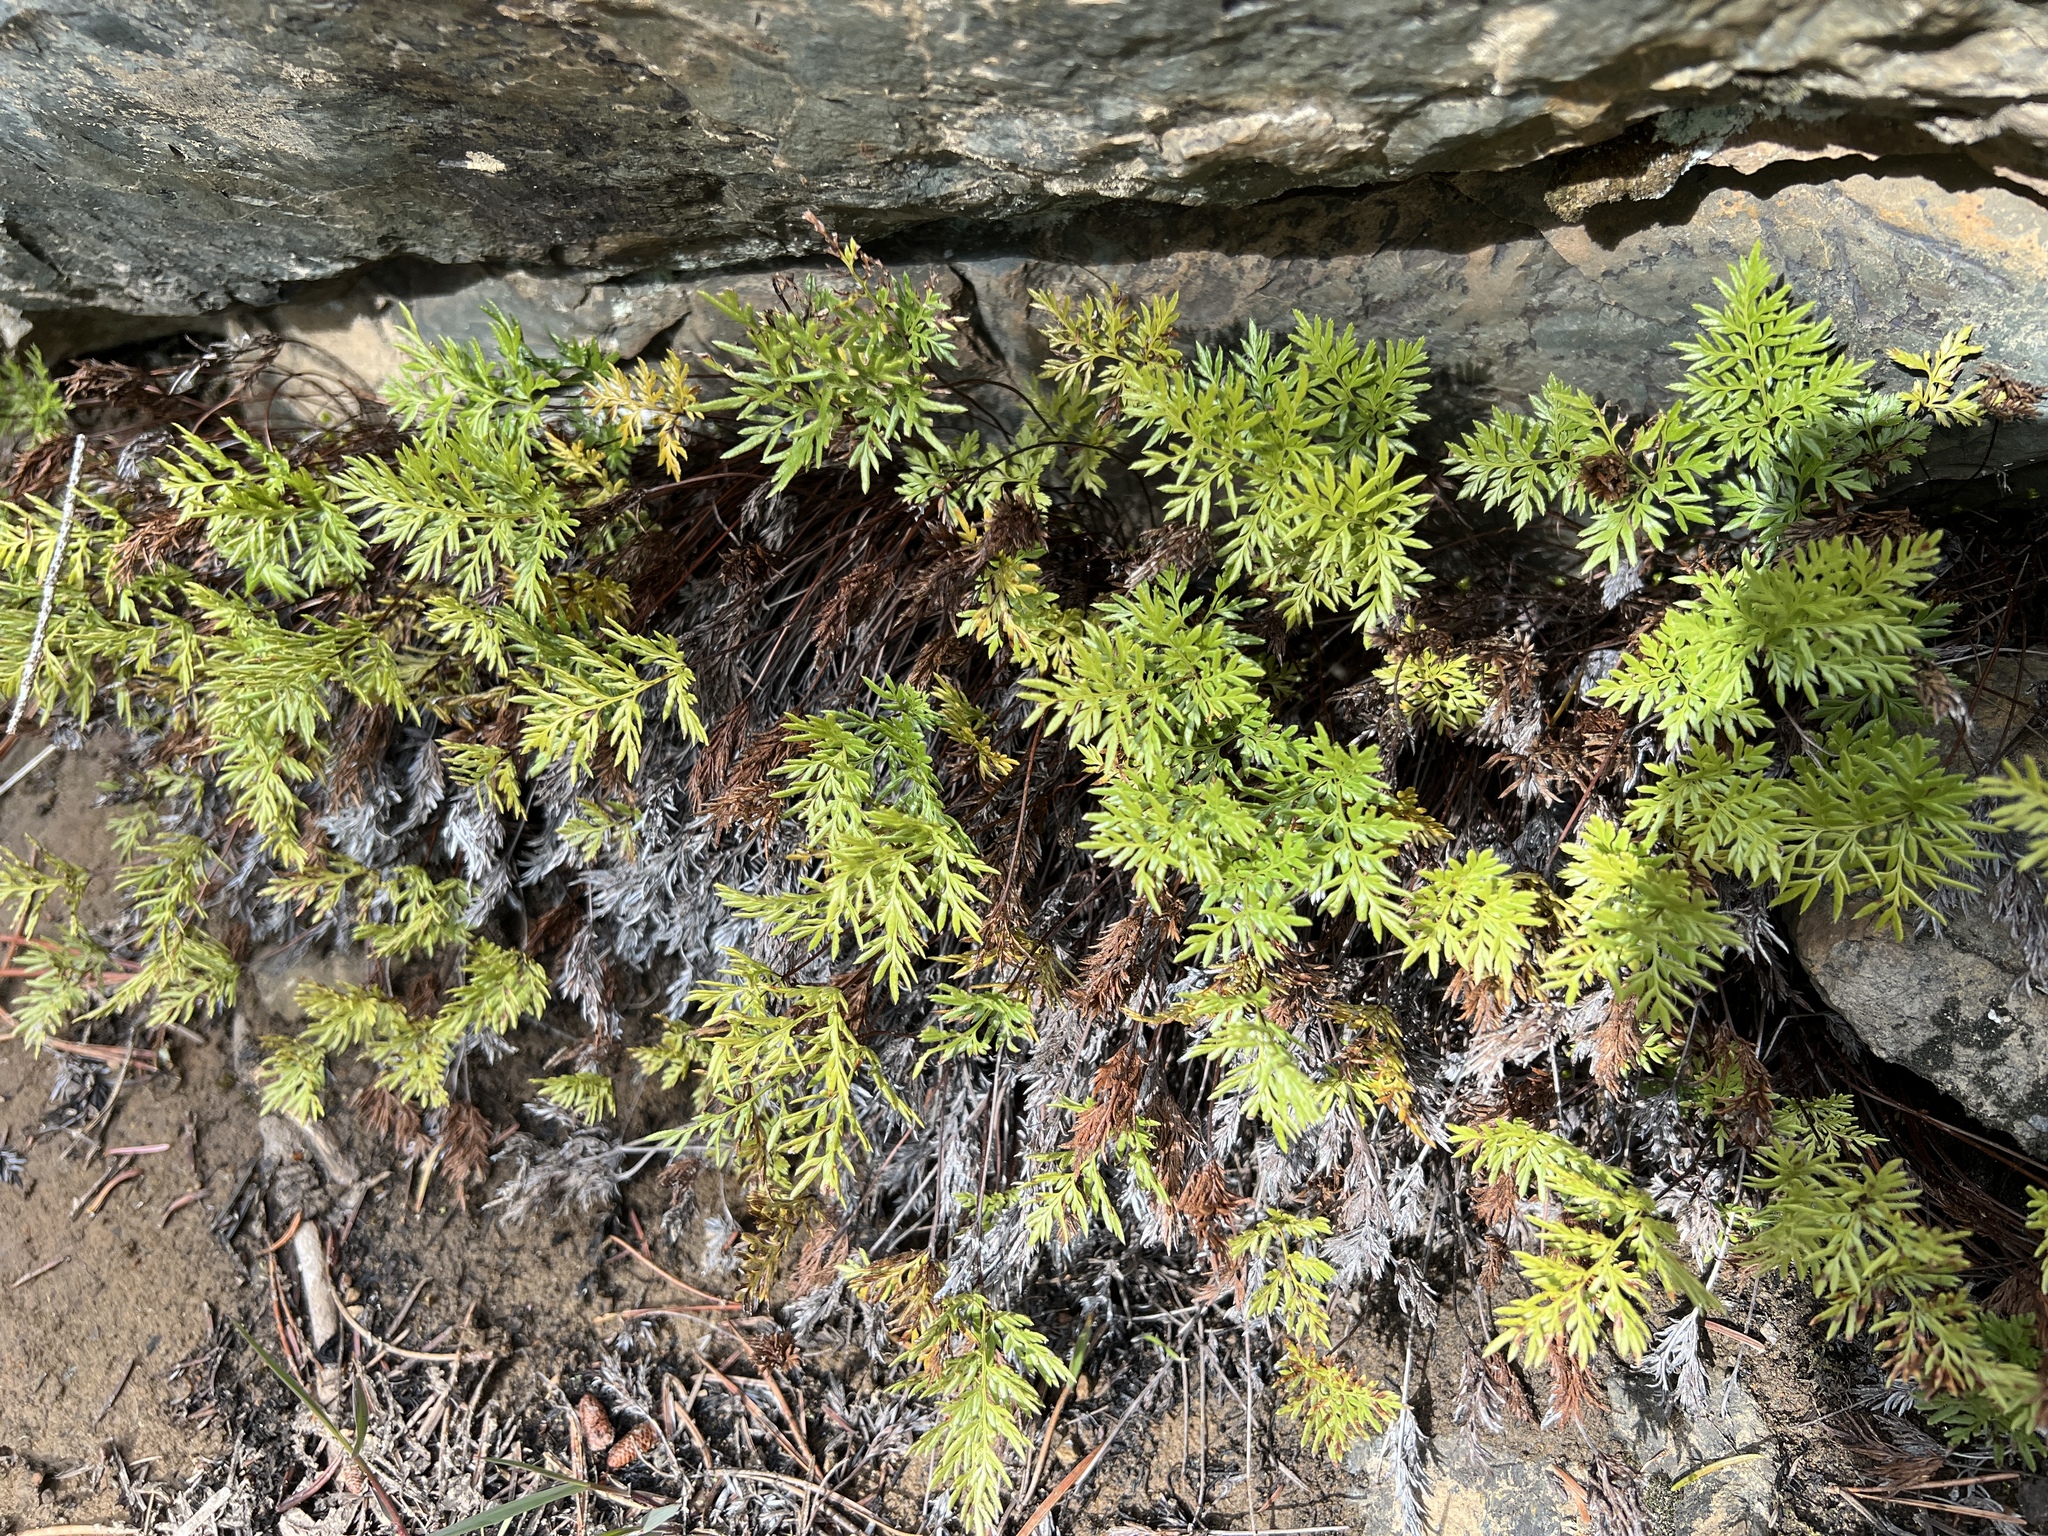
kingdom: Plantae
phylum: Tracheophyta
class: Polypodiopsida
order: Polypodiales
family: Pteridaceae
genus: Aspidotis
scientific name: Aspidotis densa
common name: Indian's dream
